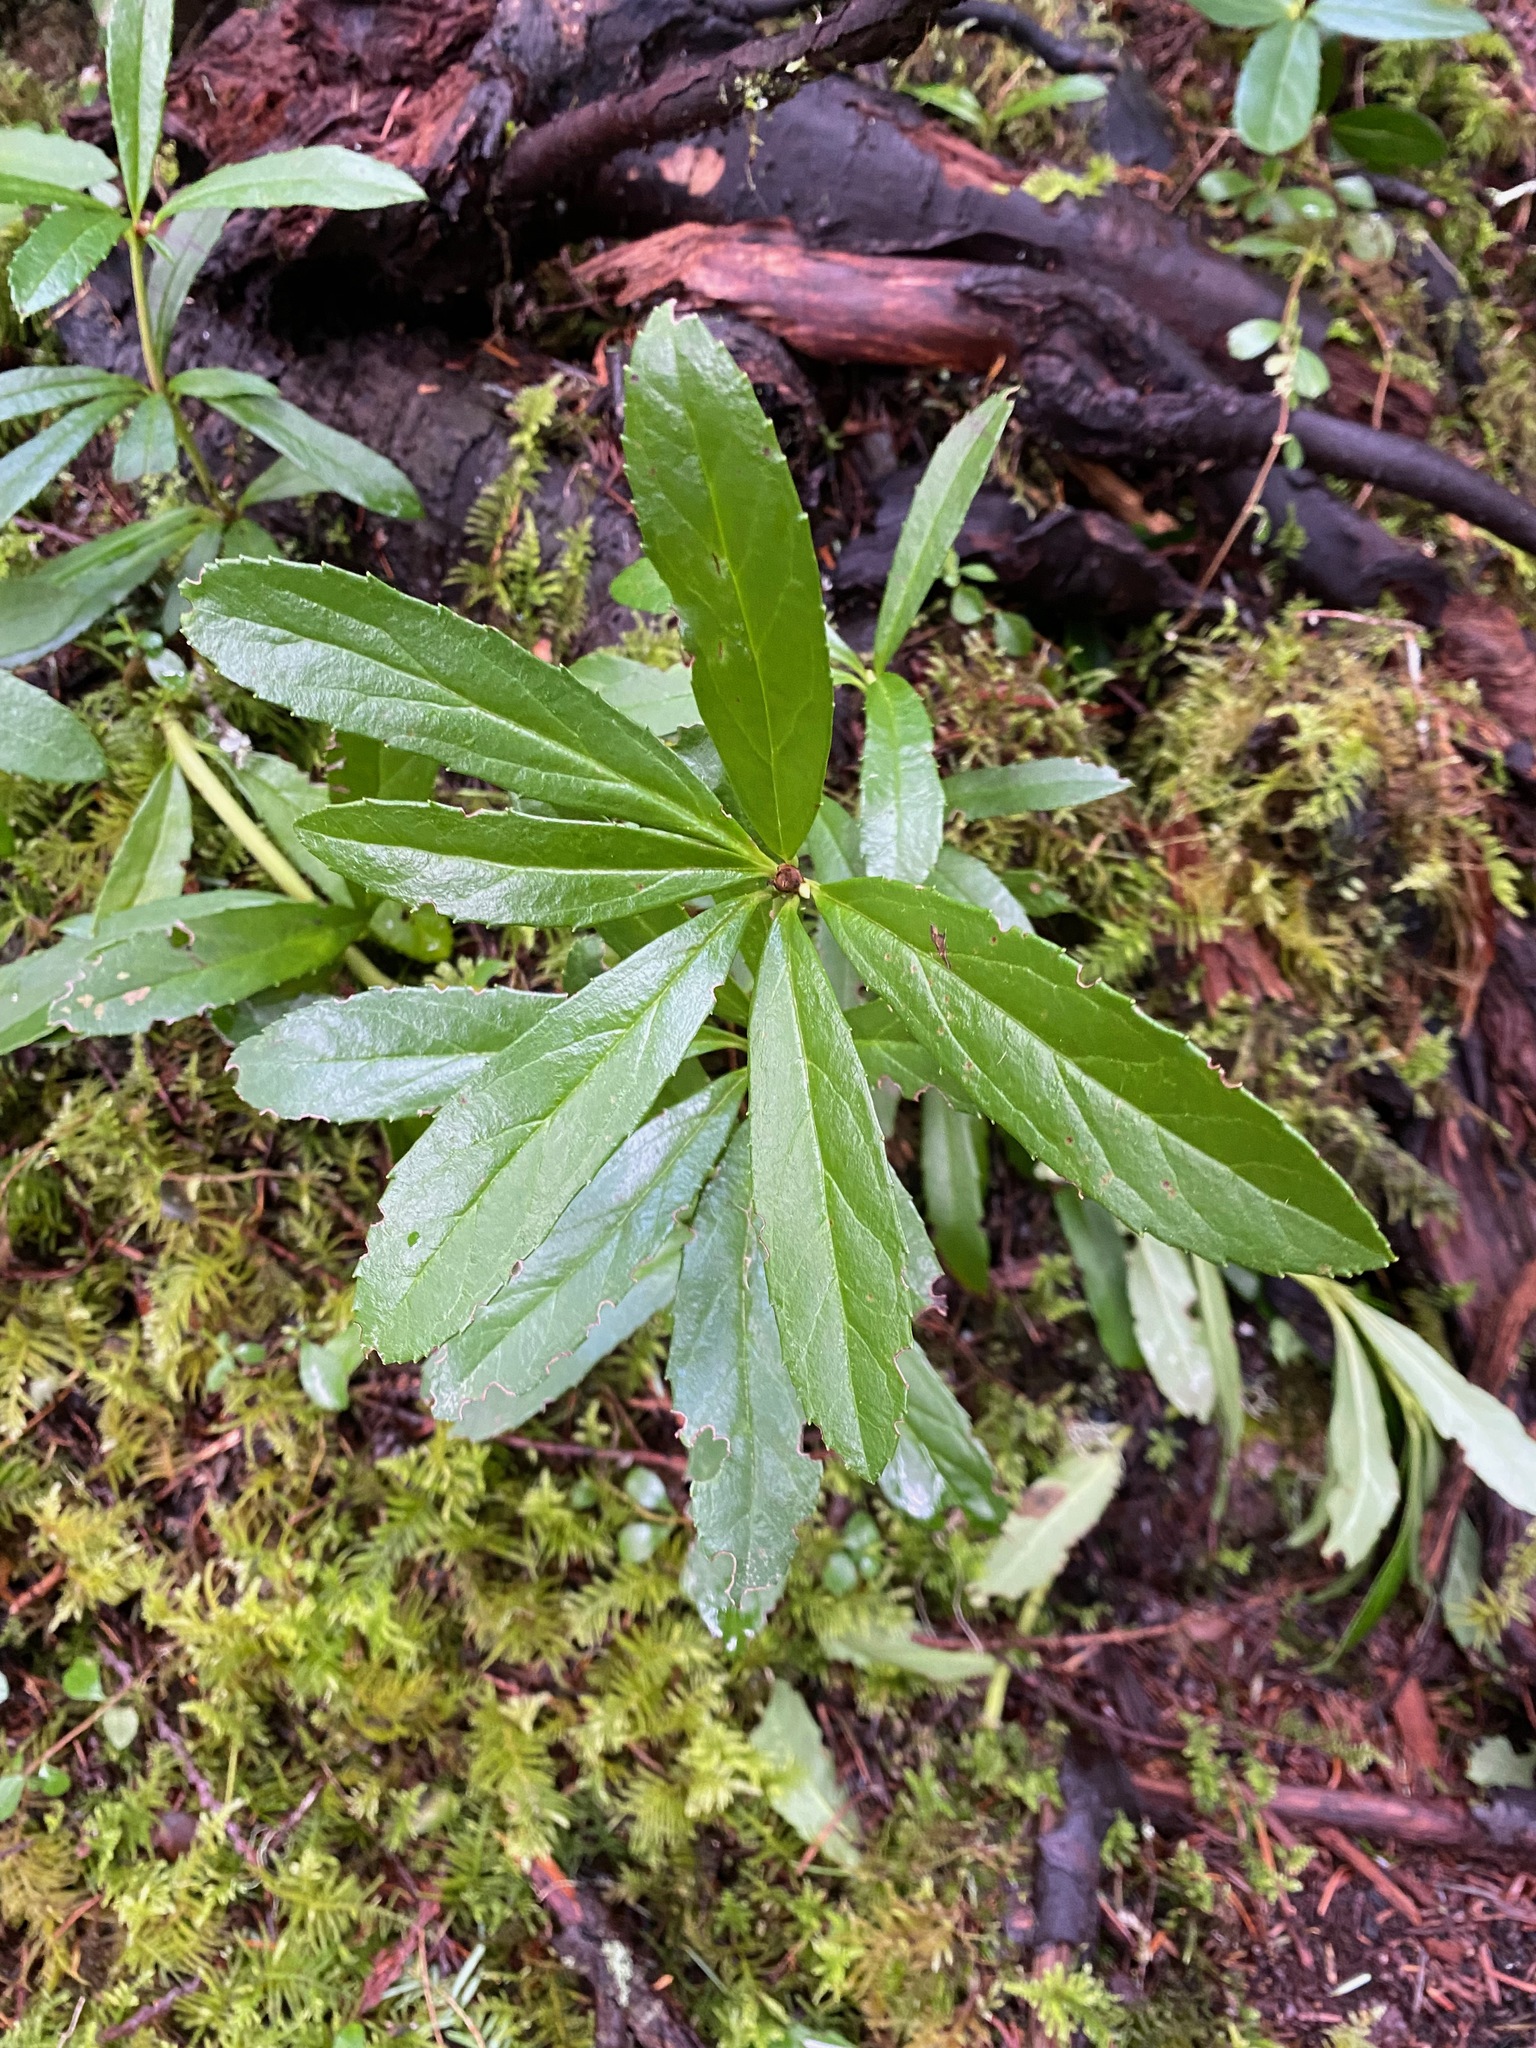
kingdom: Plantae
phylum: Tracheophyta
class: Magnoliopsida
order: Ericales
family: Ericaceae
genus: Chimaphila
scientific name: Chimaphila umbellata
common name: Pipsissewa
